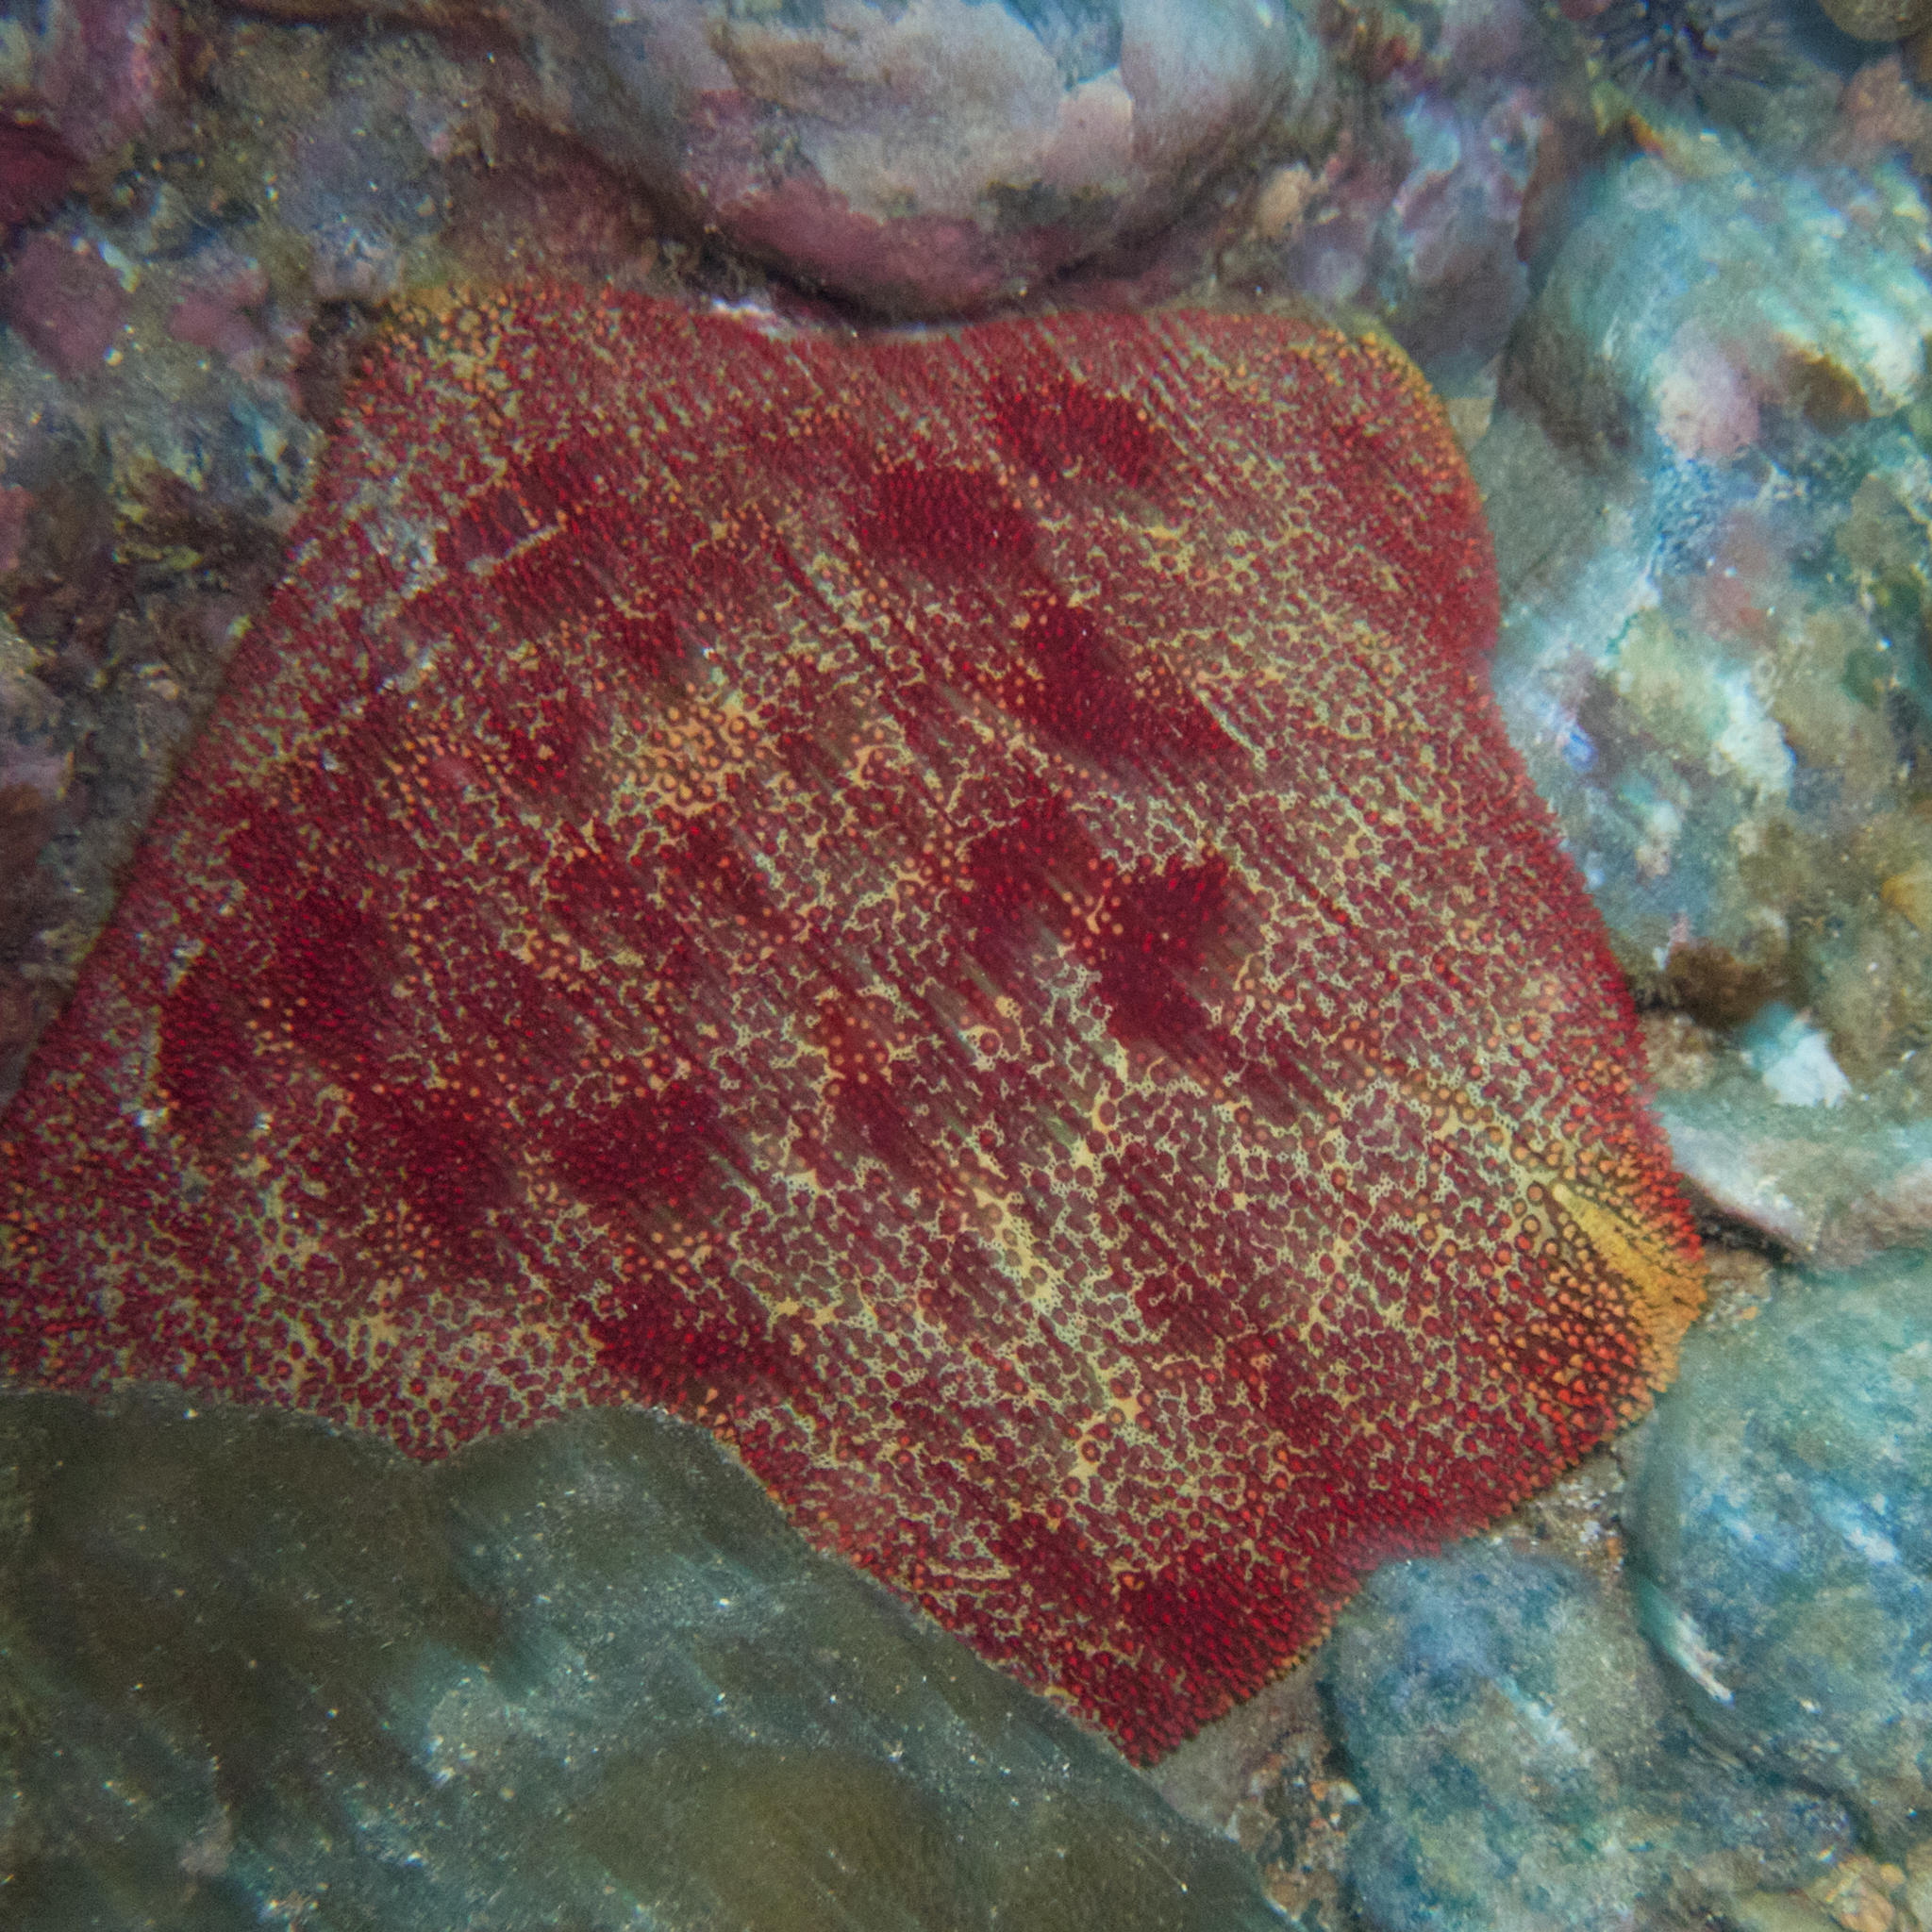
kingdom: Animalia
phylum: Echinodermata
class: Asteroidea
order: Valvatida
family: Oreasteridae
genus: Culcita
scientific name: Culcita novaeguineae
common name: Cushion star
